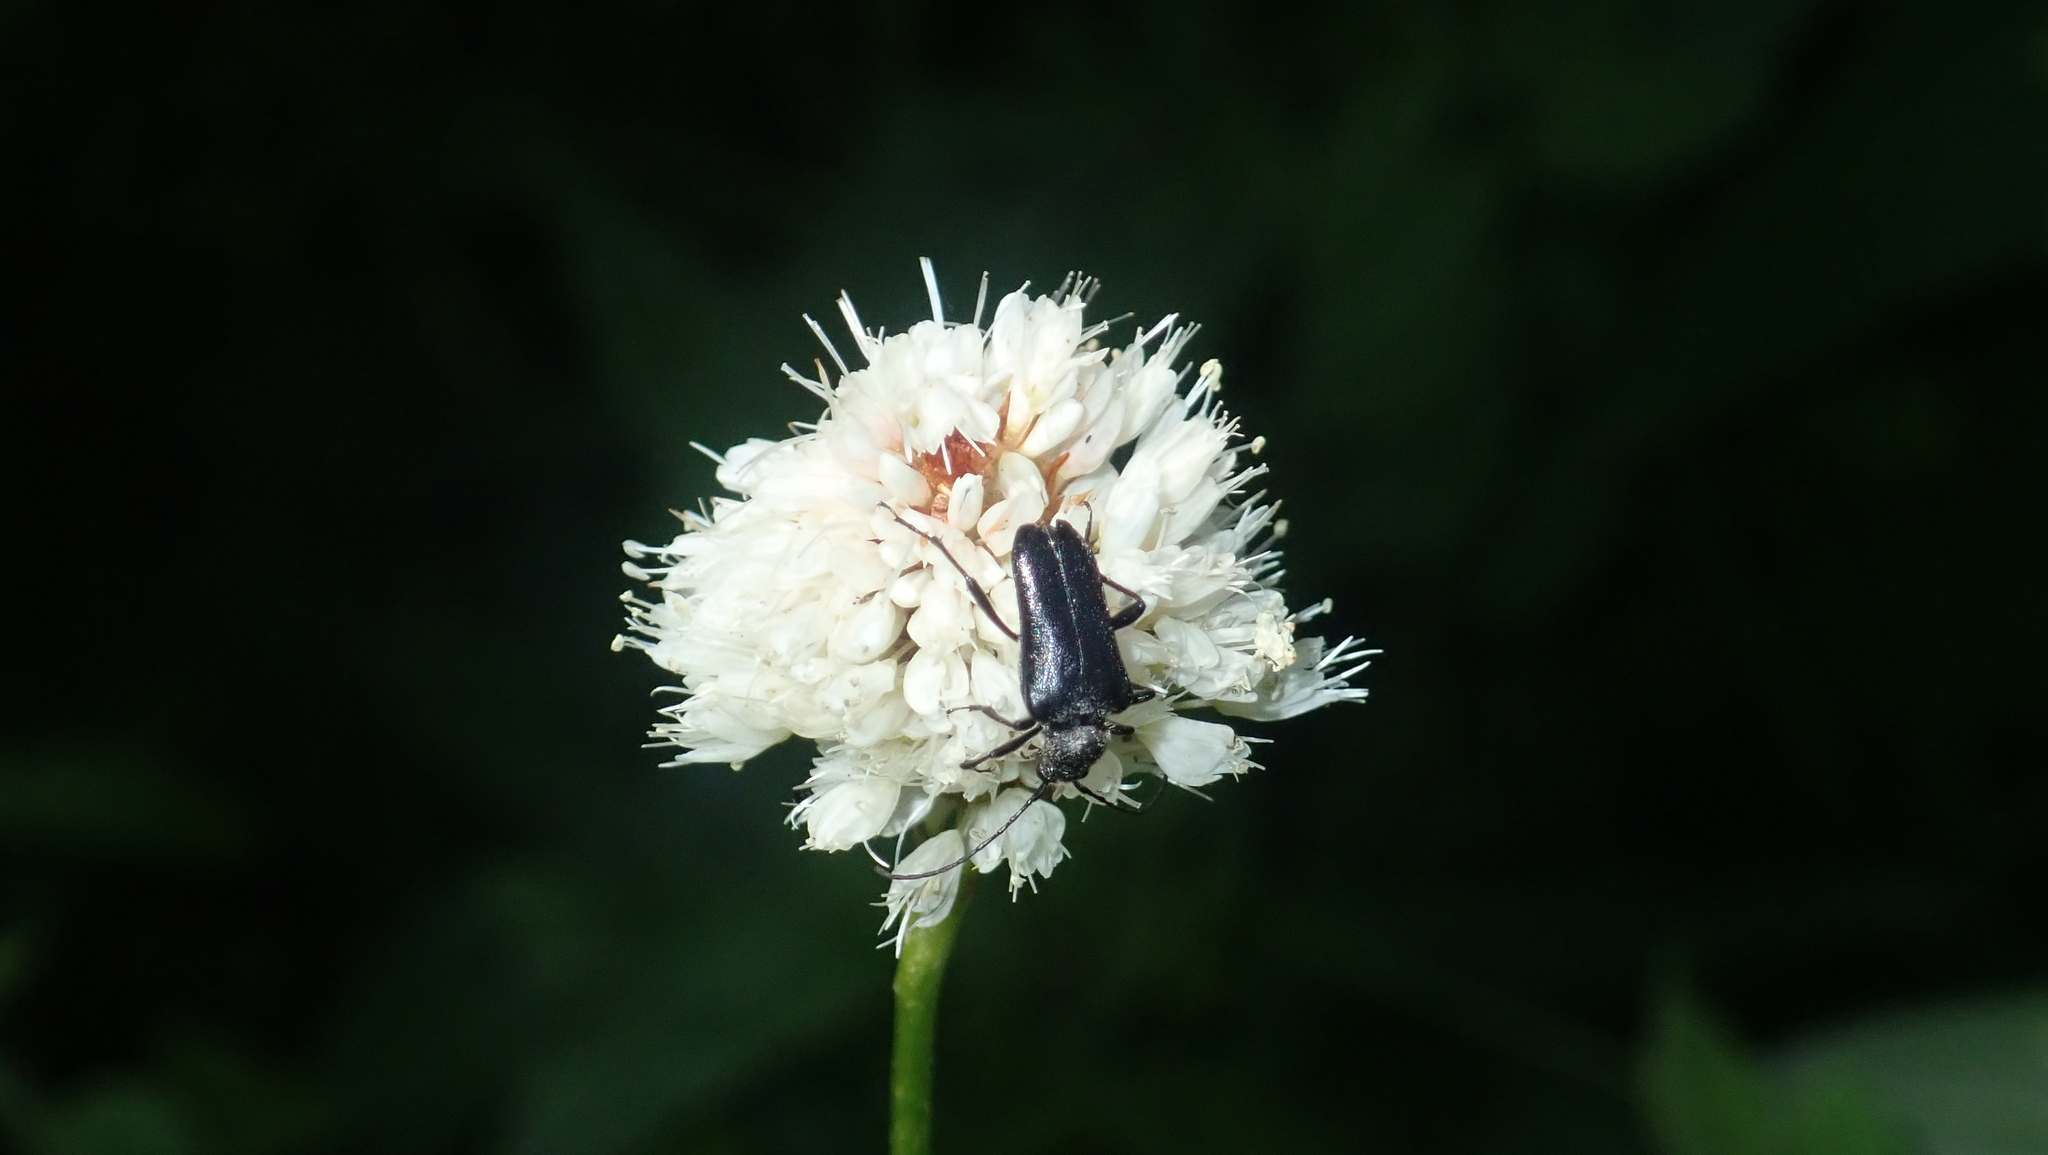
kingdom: Animalia
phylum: Arthropoda
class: Insecta
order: Coleoptera
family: Cerambycidae
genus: Judolia
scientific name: Judolia instabilis
